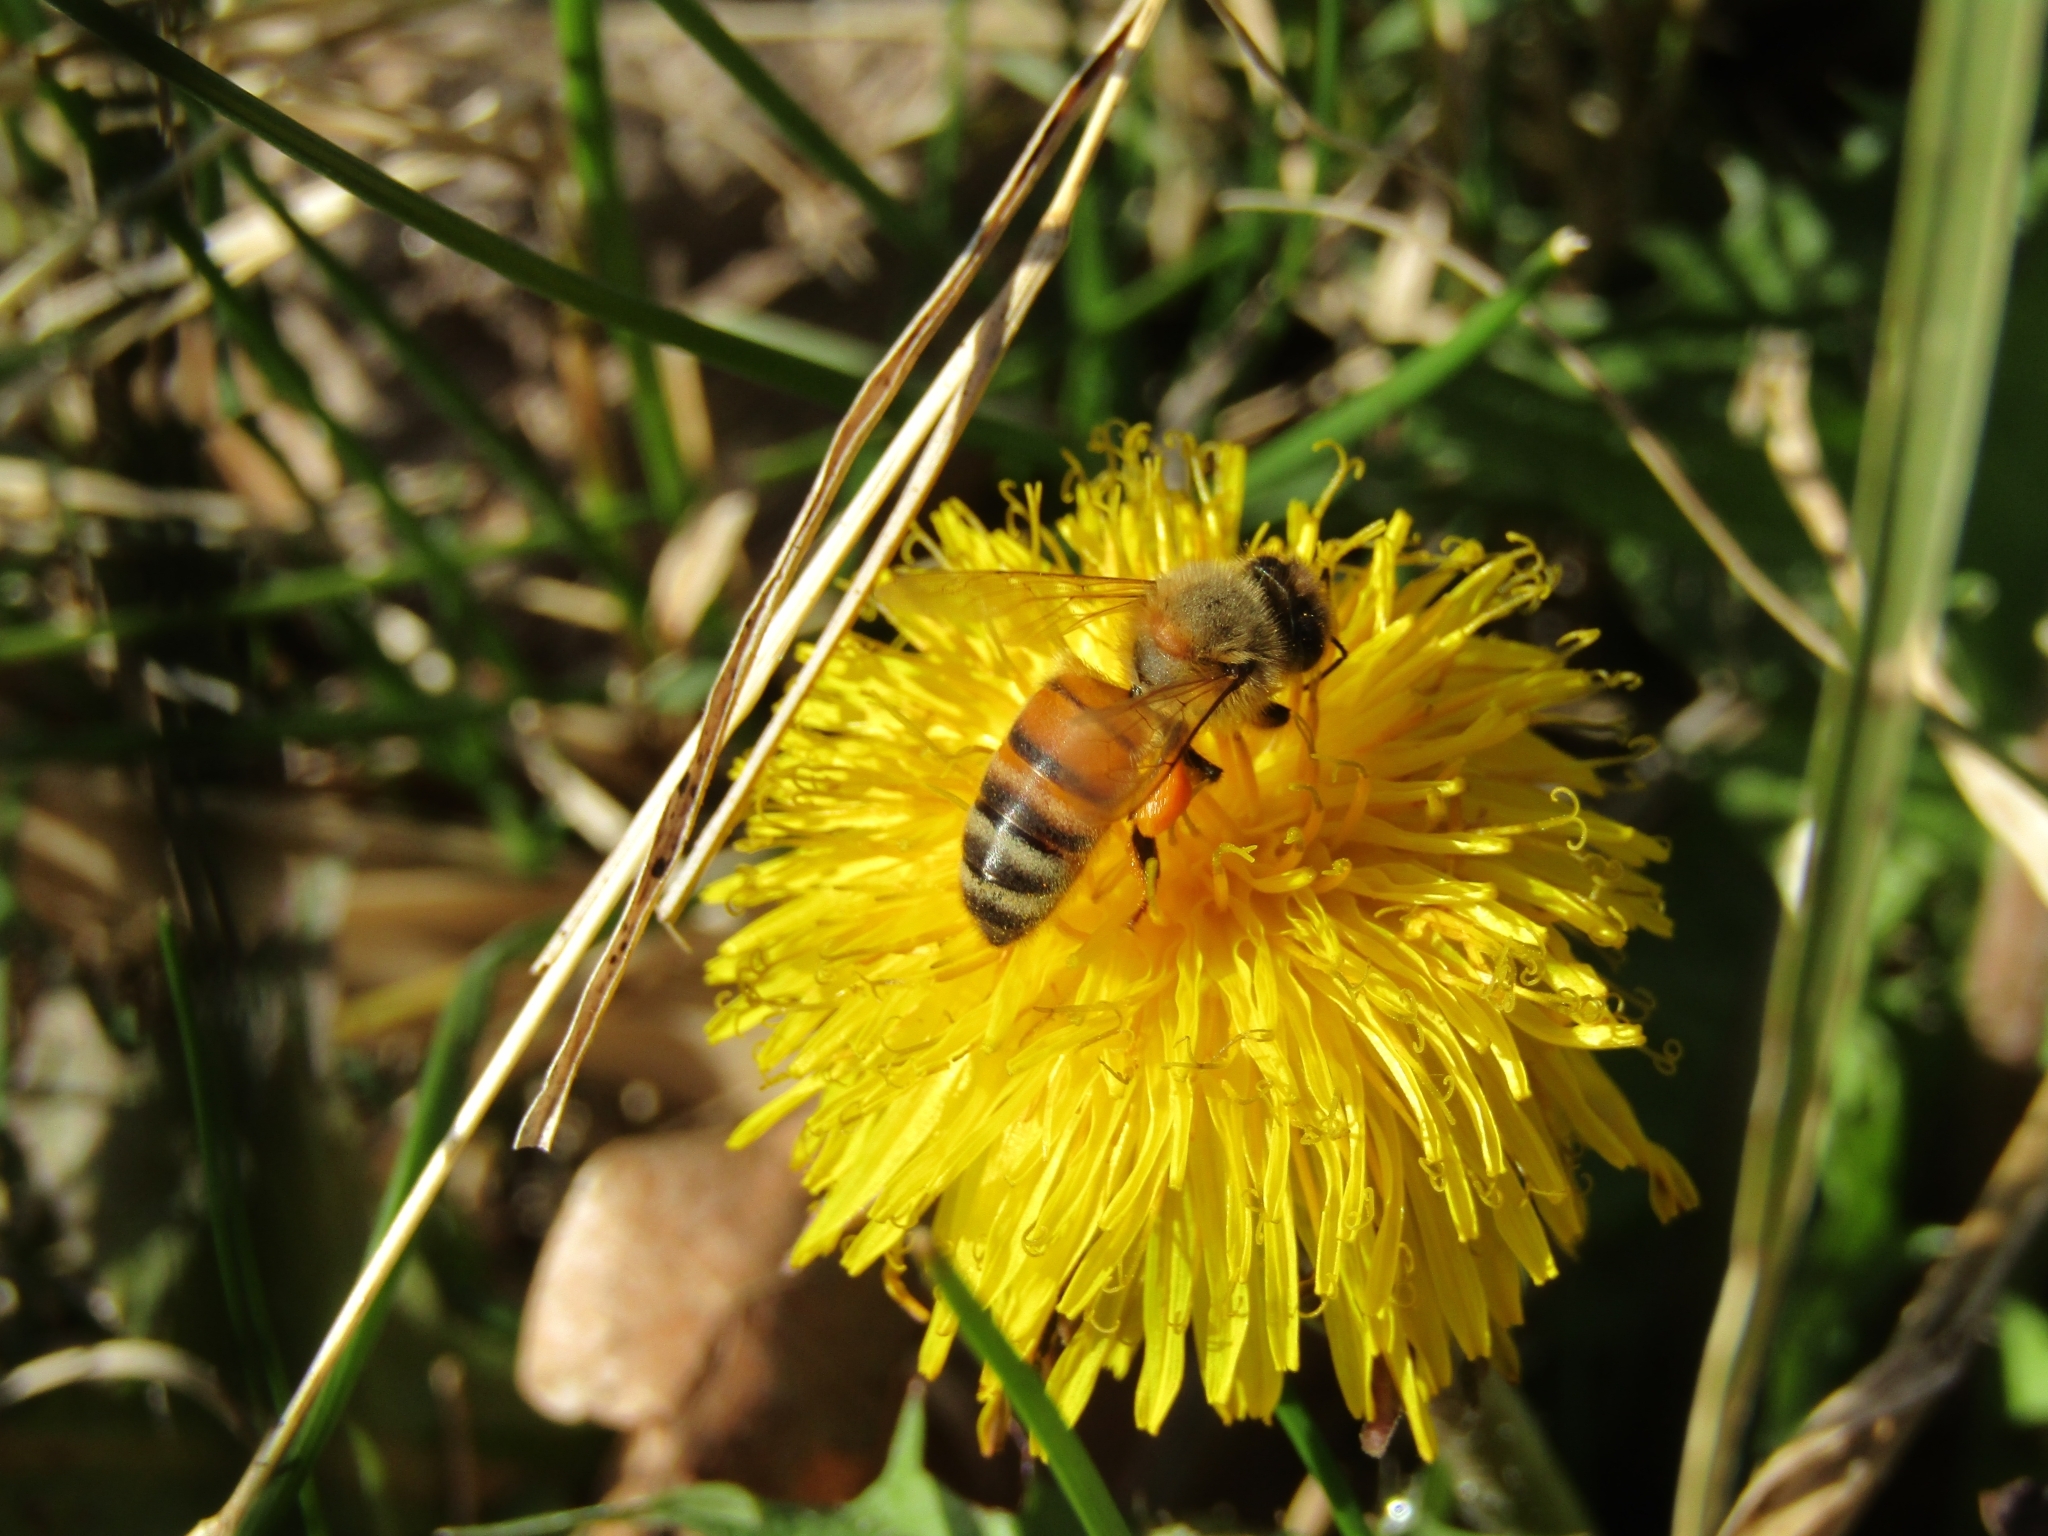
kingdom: Animalia
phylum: Arthropoda
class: Insecta
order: Hymenoptera
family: Apidae
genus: Apis
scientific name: Apis mellifera
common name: Honey bee
